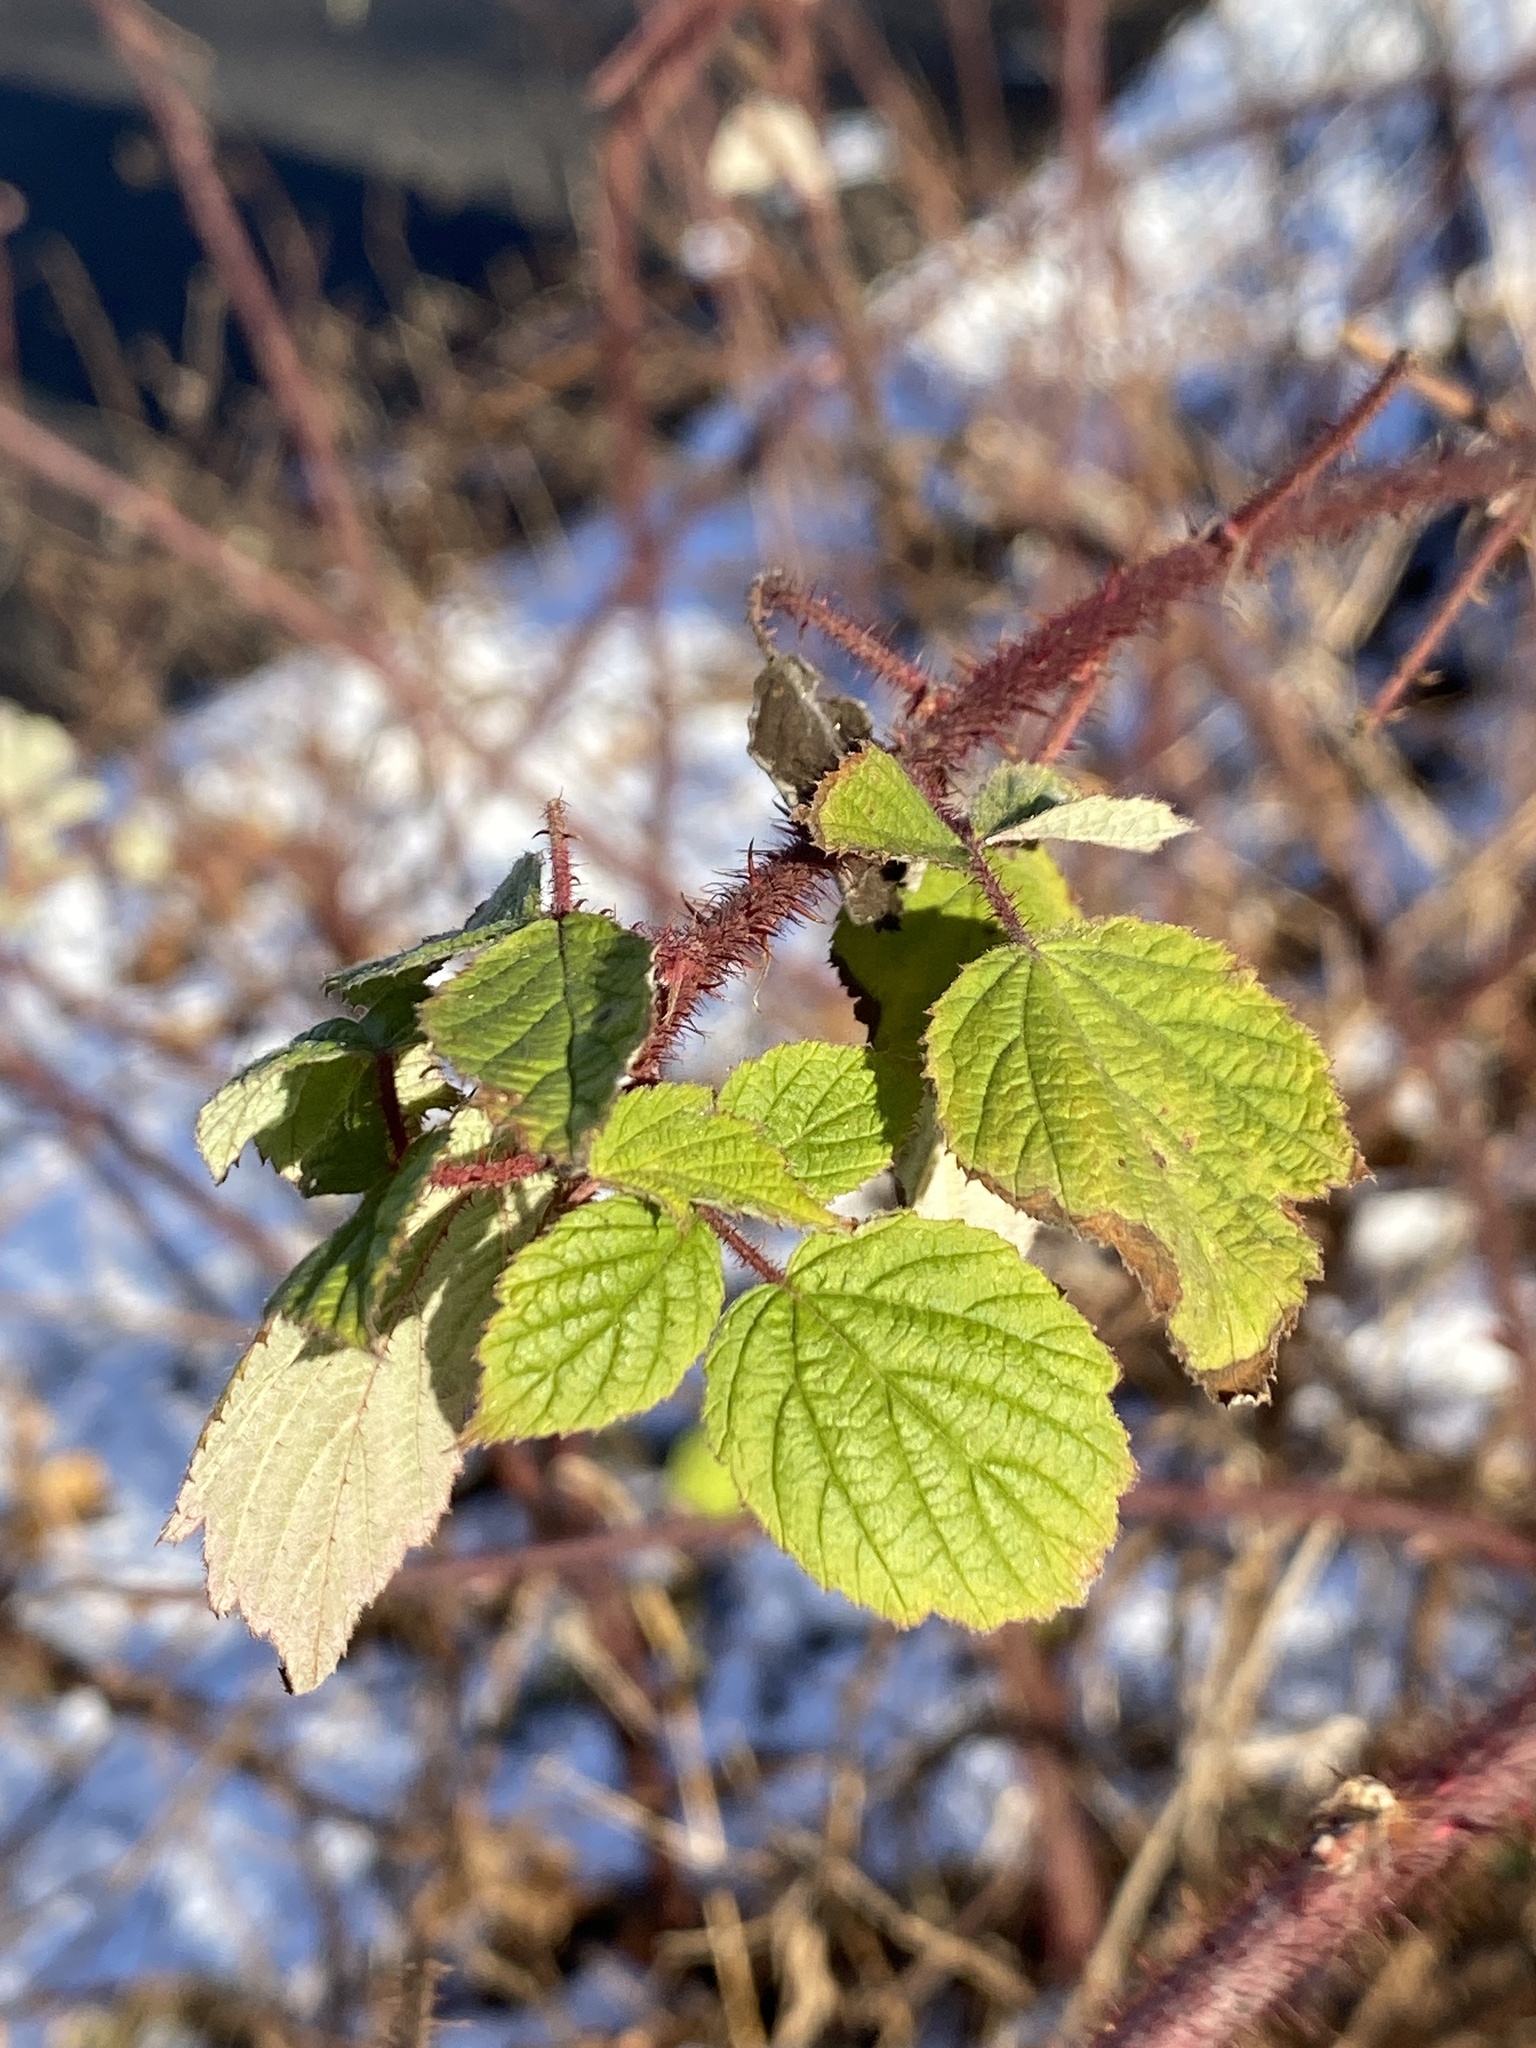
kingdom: Plantae
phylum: Tracheophyta
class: Magnoliopsida
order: Rosales
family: Rosaceae
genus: Rubus
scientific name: Rubus phoenicolasius
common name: Japanese wineberry
